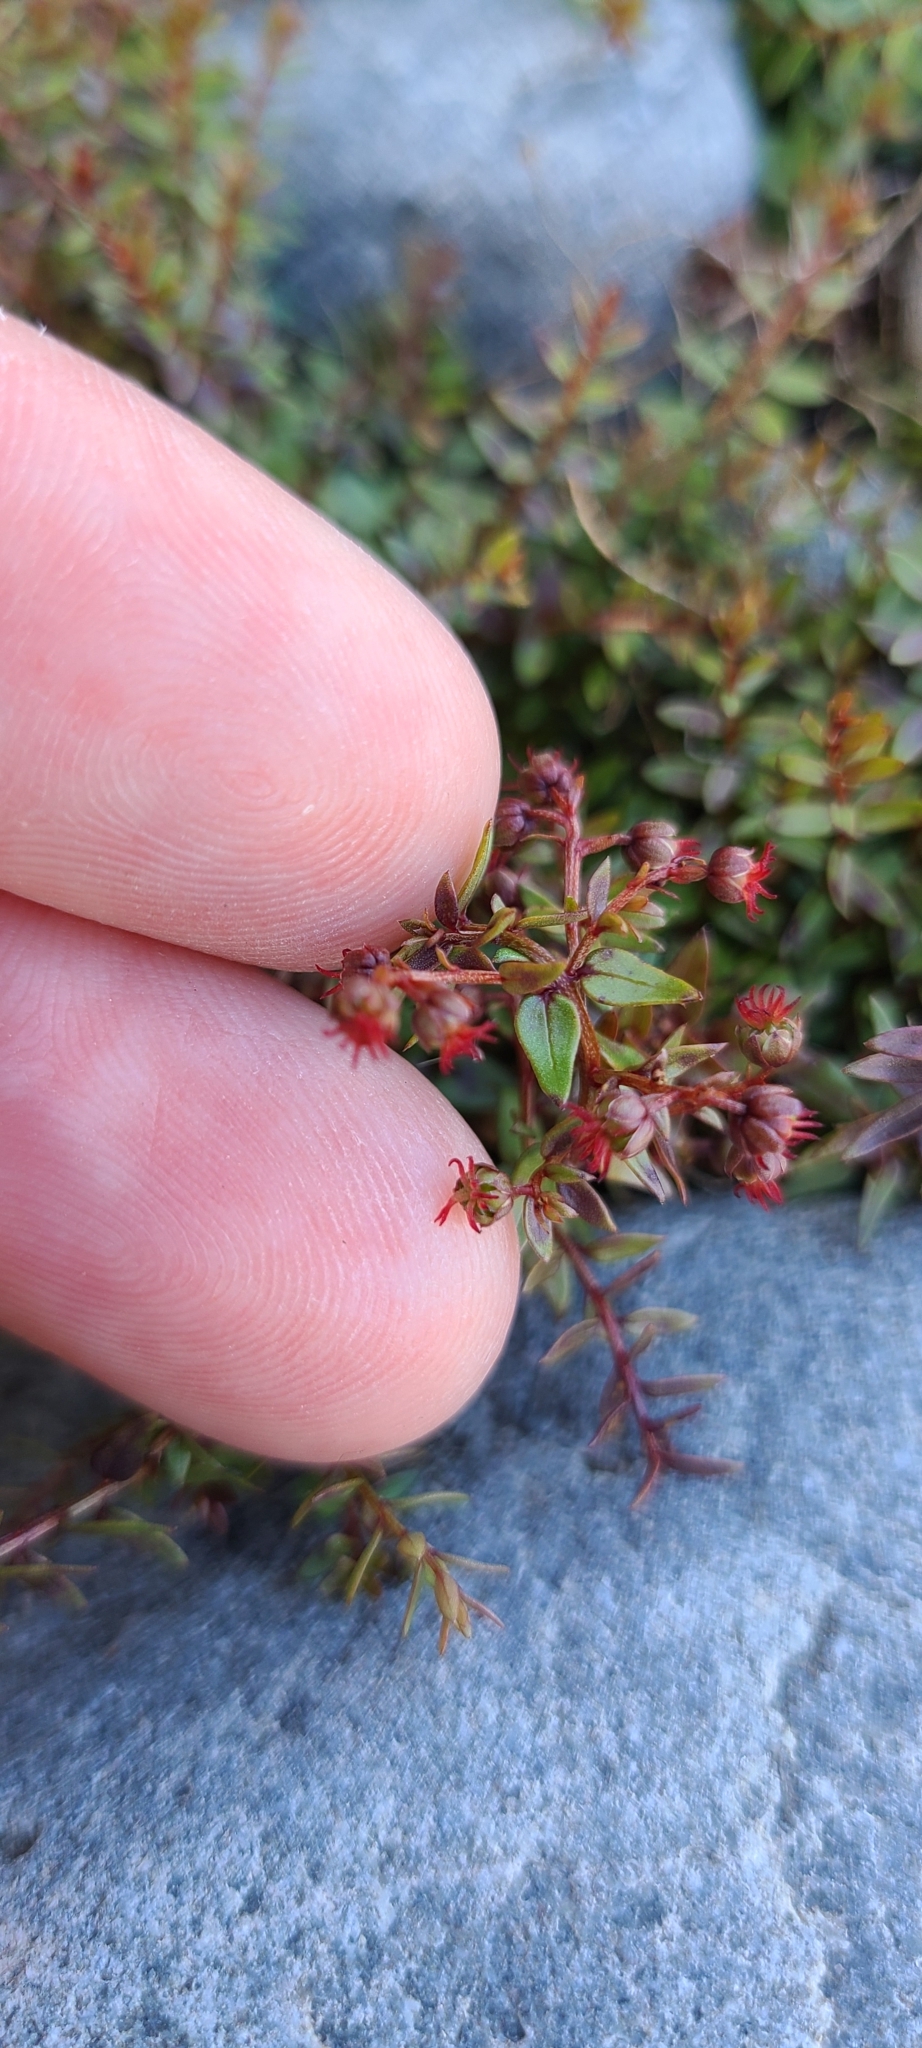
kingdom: Plantae
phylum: Tracheophyta
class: Magnoliopsida
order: Cucurbitales
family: Coriariaceae
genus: Coriaria
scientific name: Coriaria plumosa
